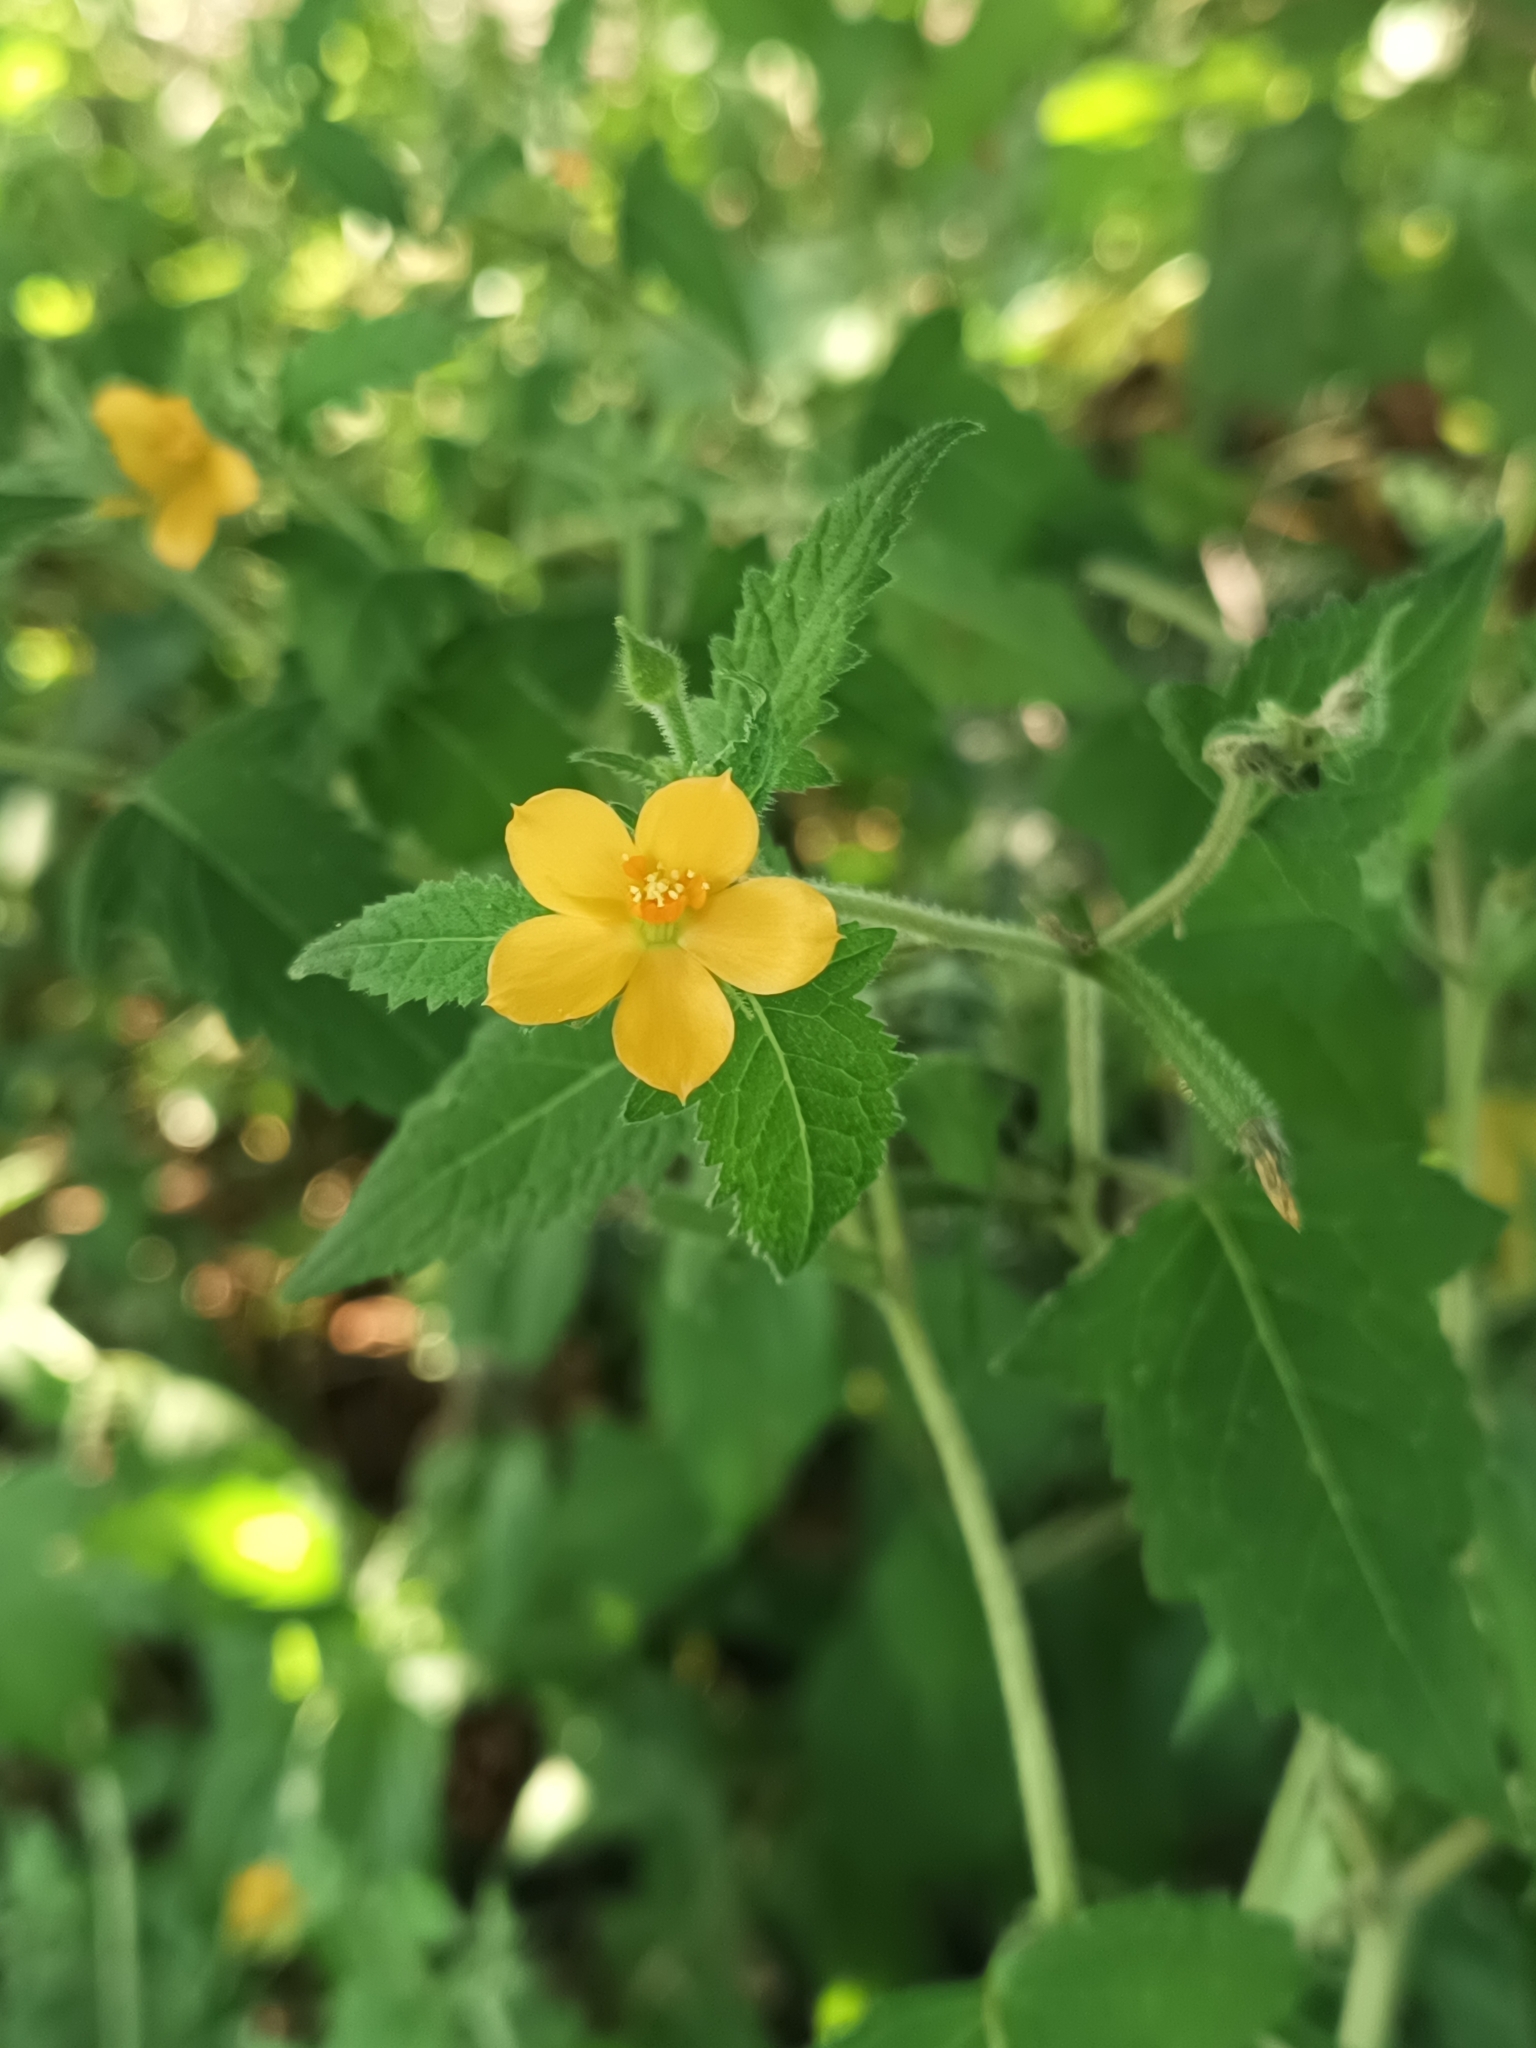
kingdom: Plantae
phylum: Tracheophyta
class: Magnoliopsida
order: Cornales
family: Loasaceae
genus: Mentzelia
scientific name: Mentzelia aspera
